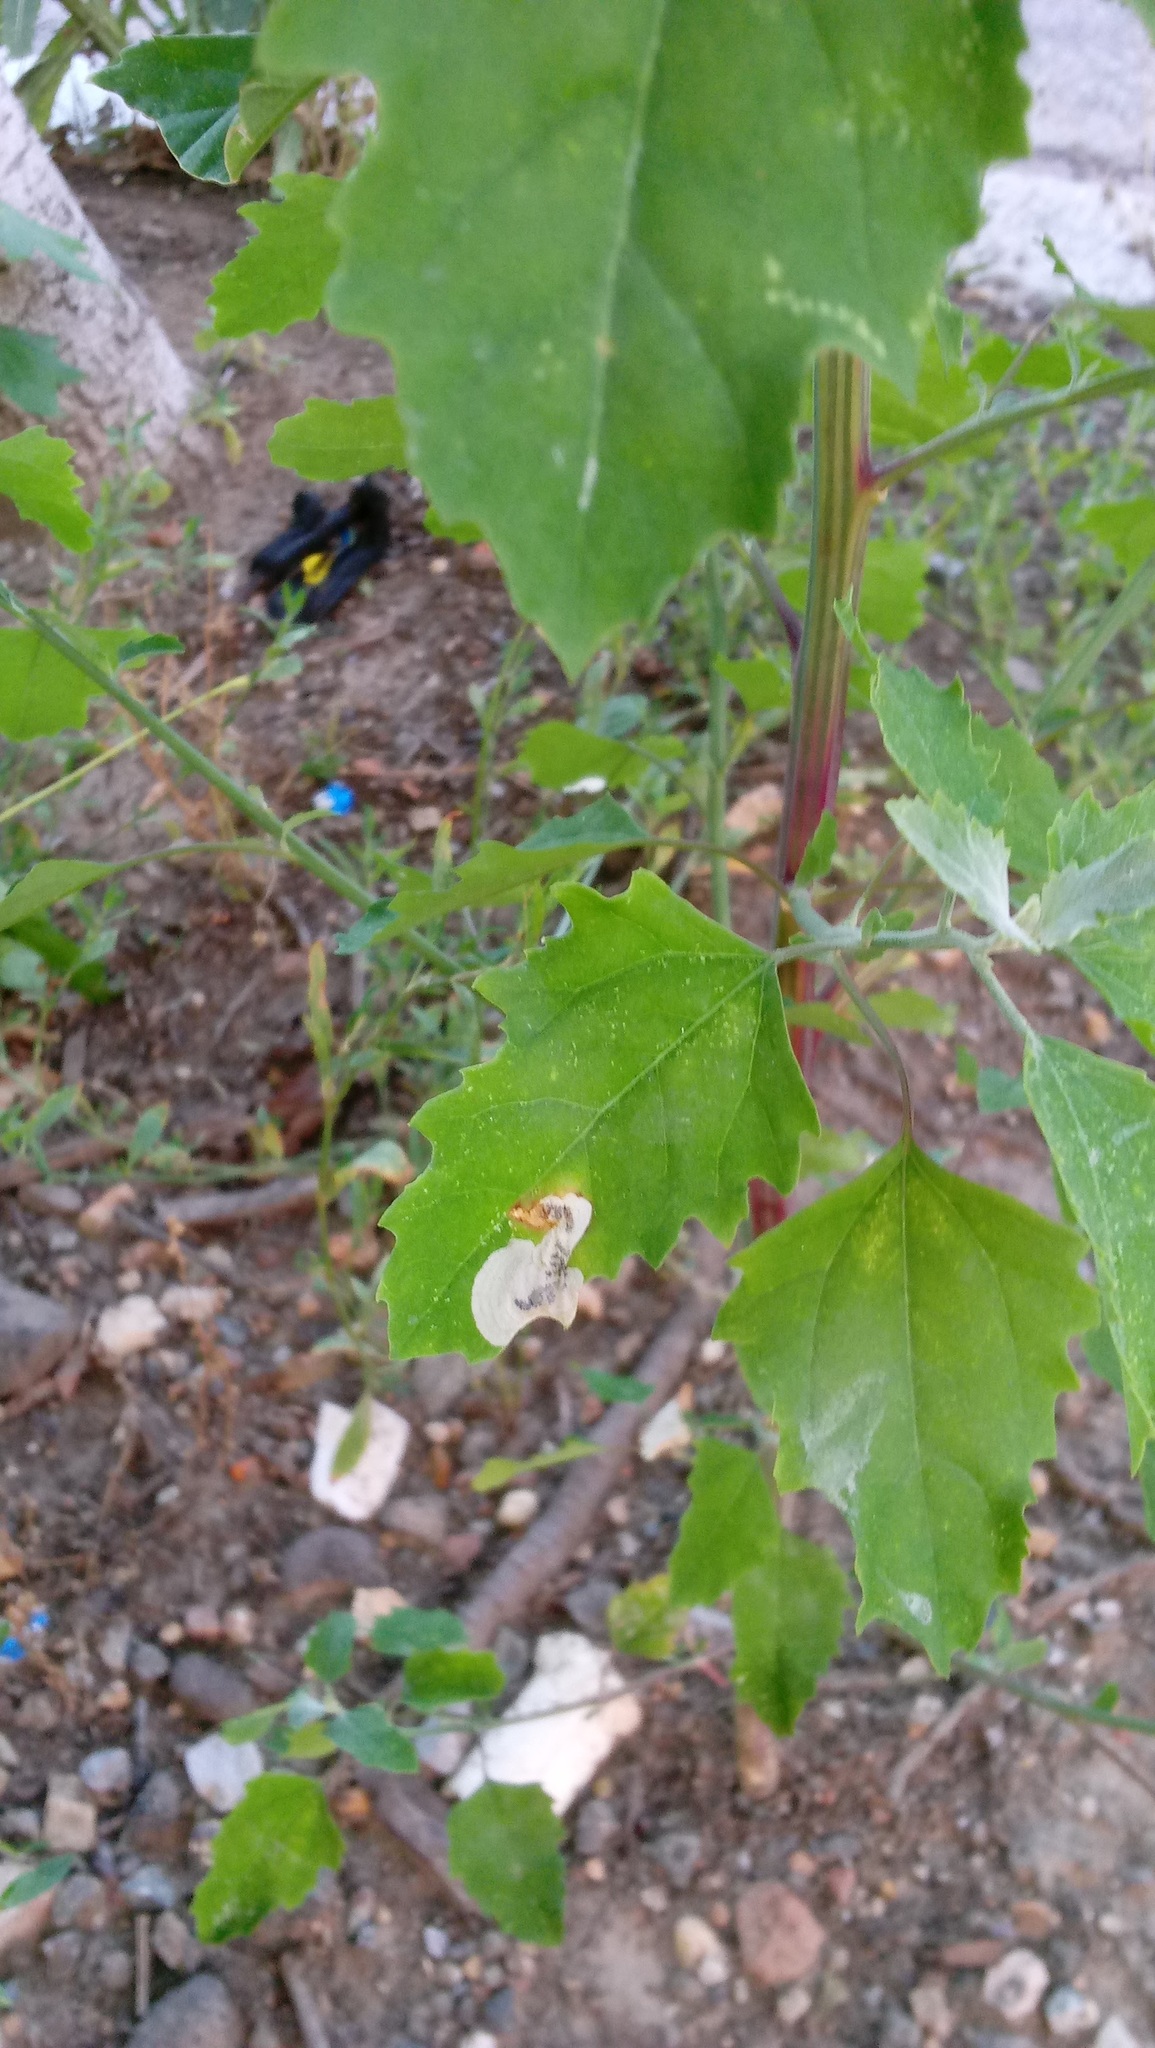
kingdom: Animalia
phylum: Arthropoda
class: Insecta
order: Lepidoptera
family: Gelechiidae
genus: Chrysoesthia
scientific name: Chrysoesthia sexguttella
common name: Moth
